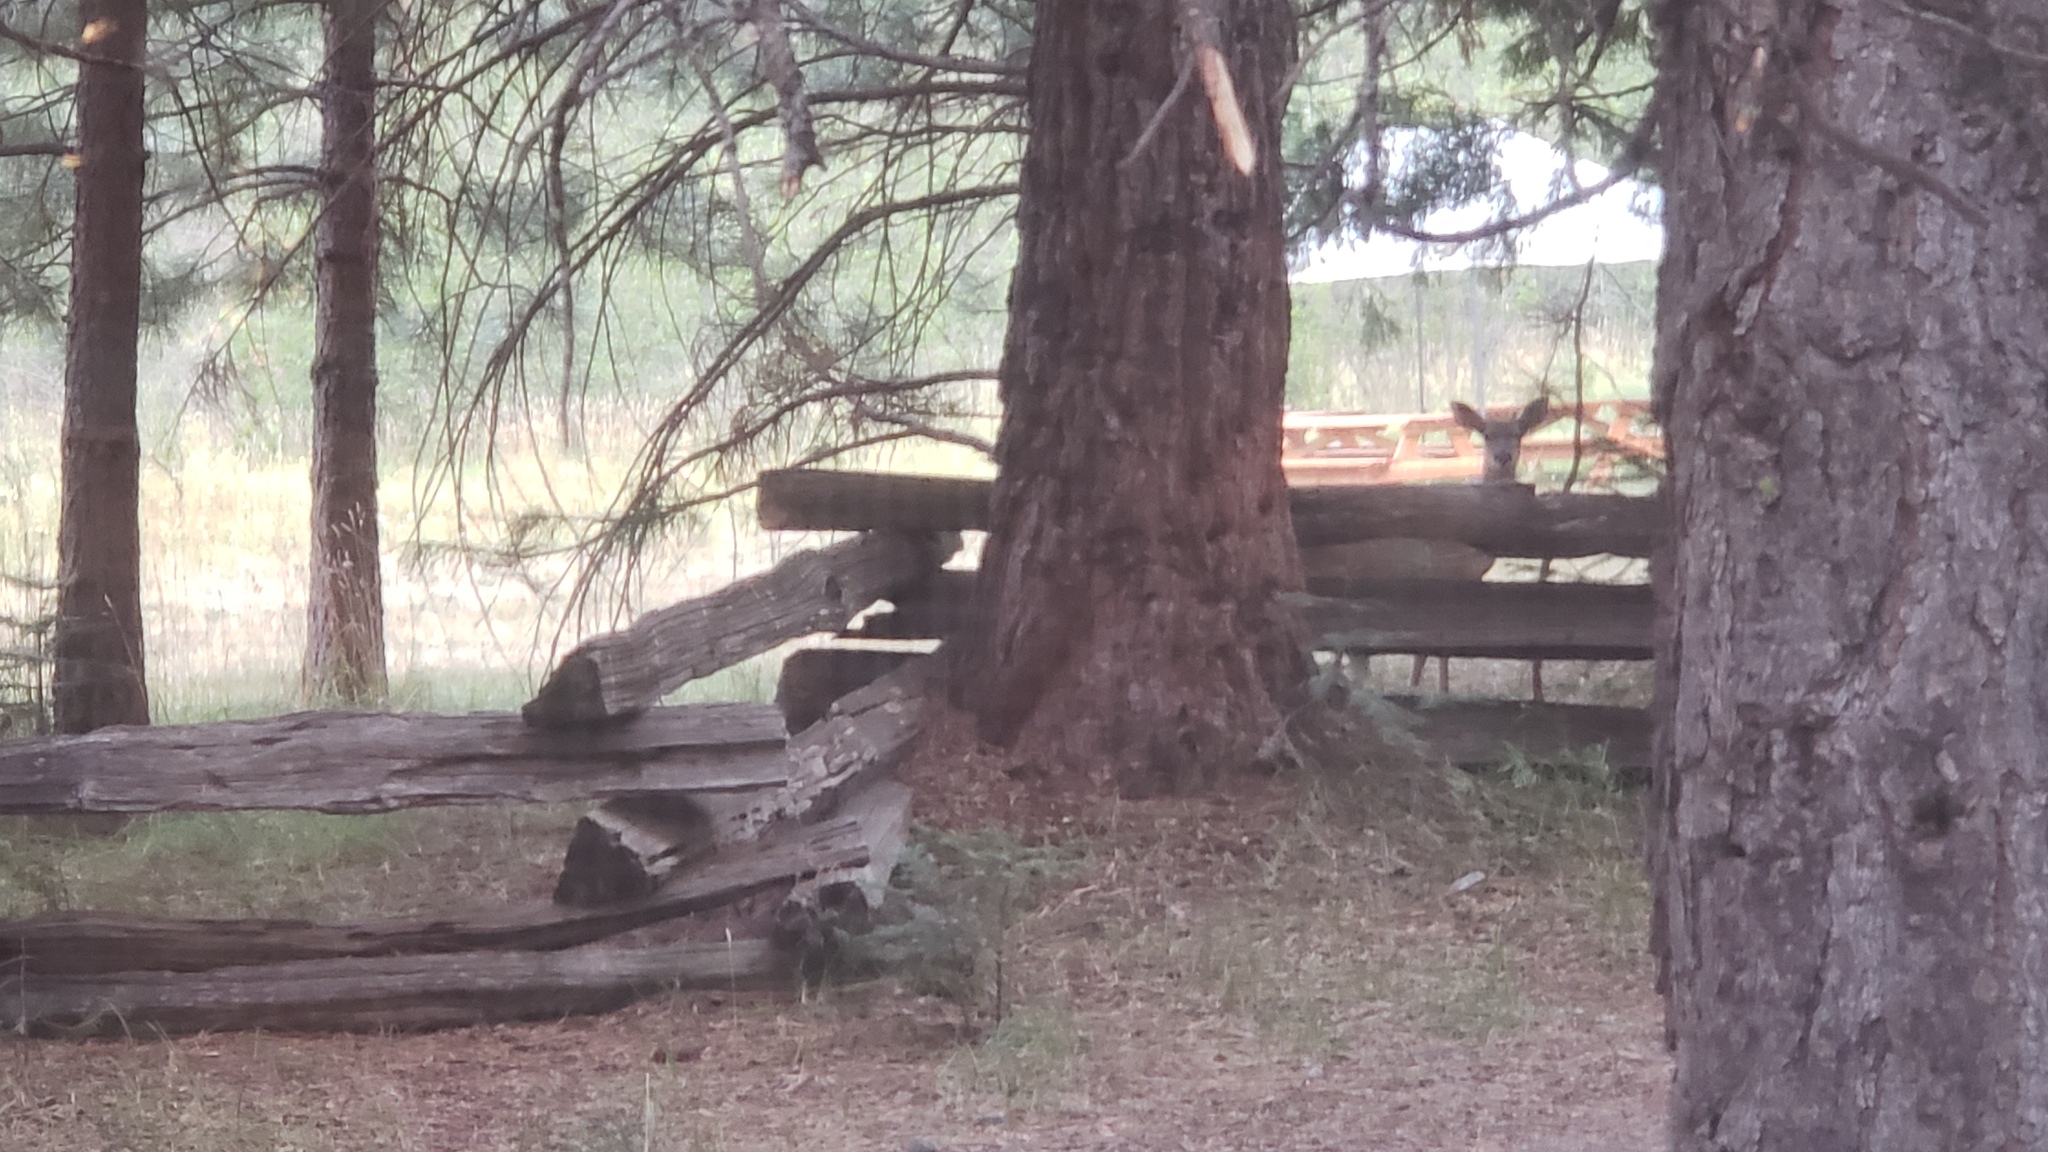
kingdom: Animalia
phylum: Chordata
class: Mammalia
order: Artiodactyla
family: Cervidae
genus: Odocoileus
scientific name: Odocoileus hemionus
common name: Mule deer
